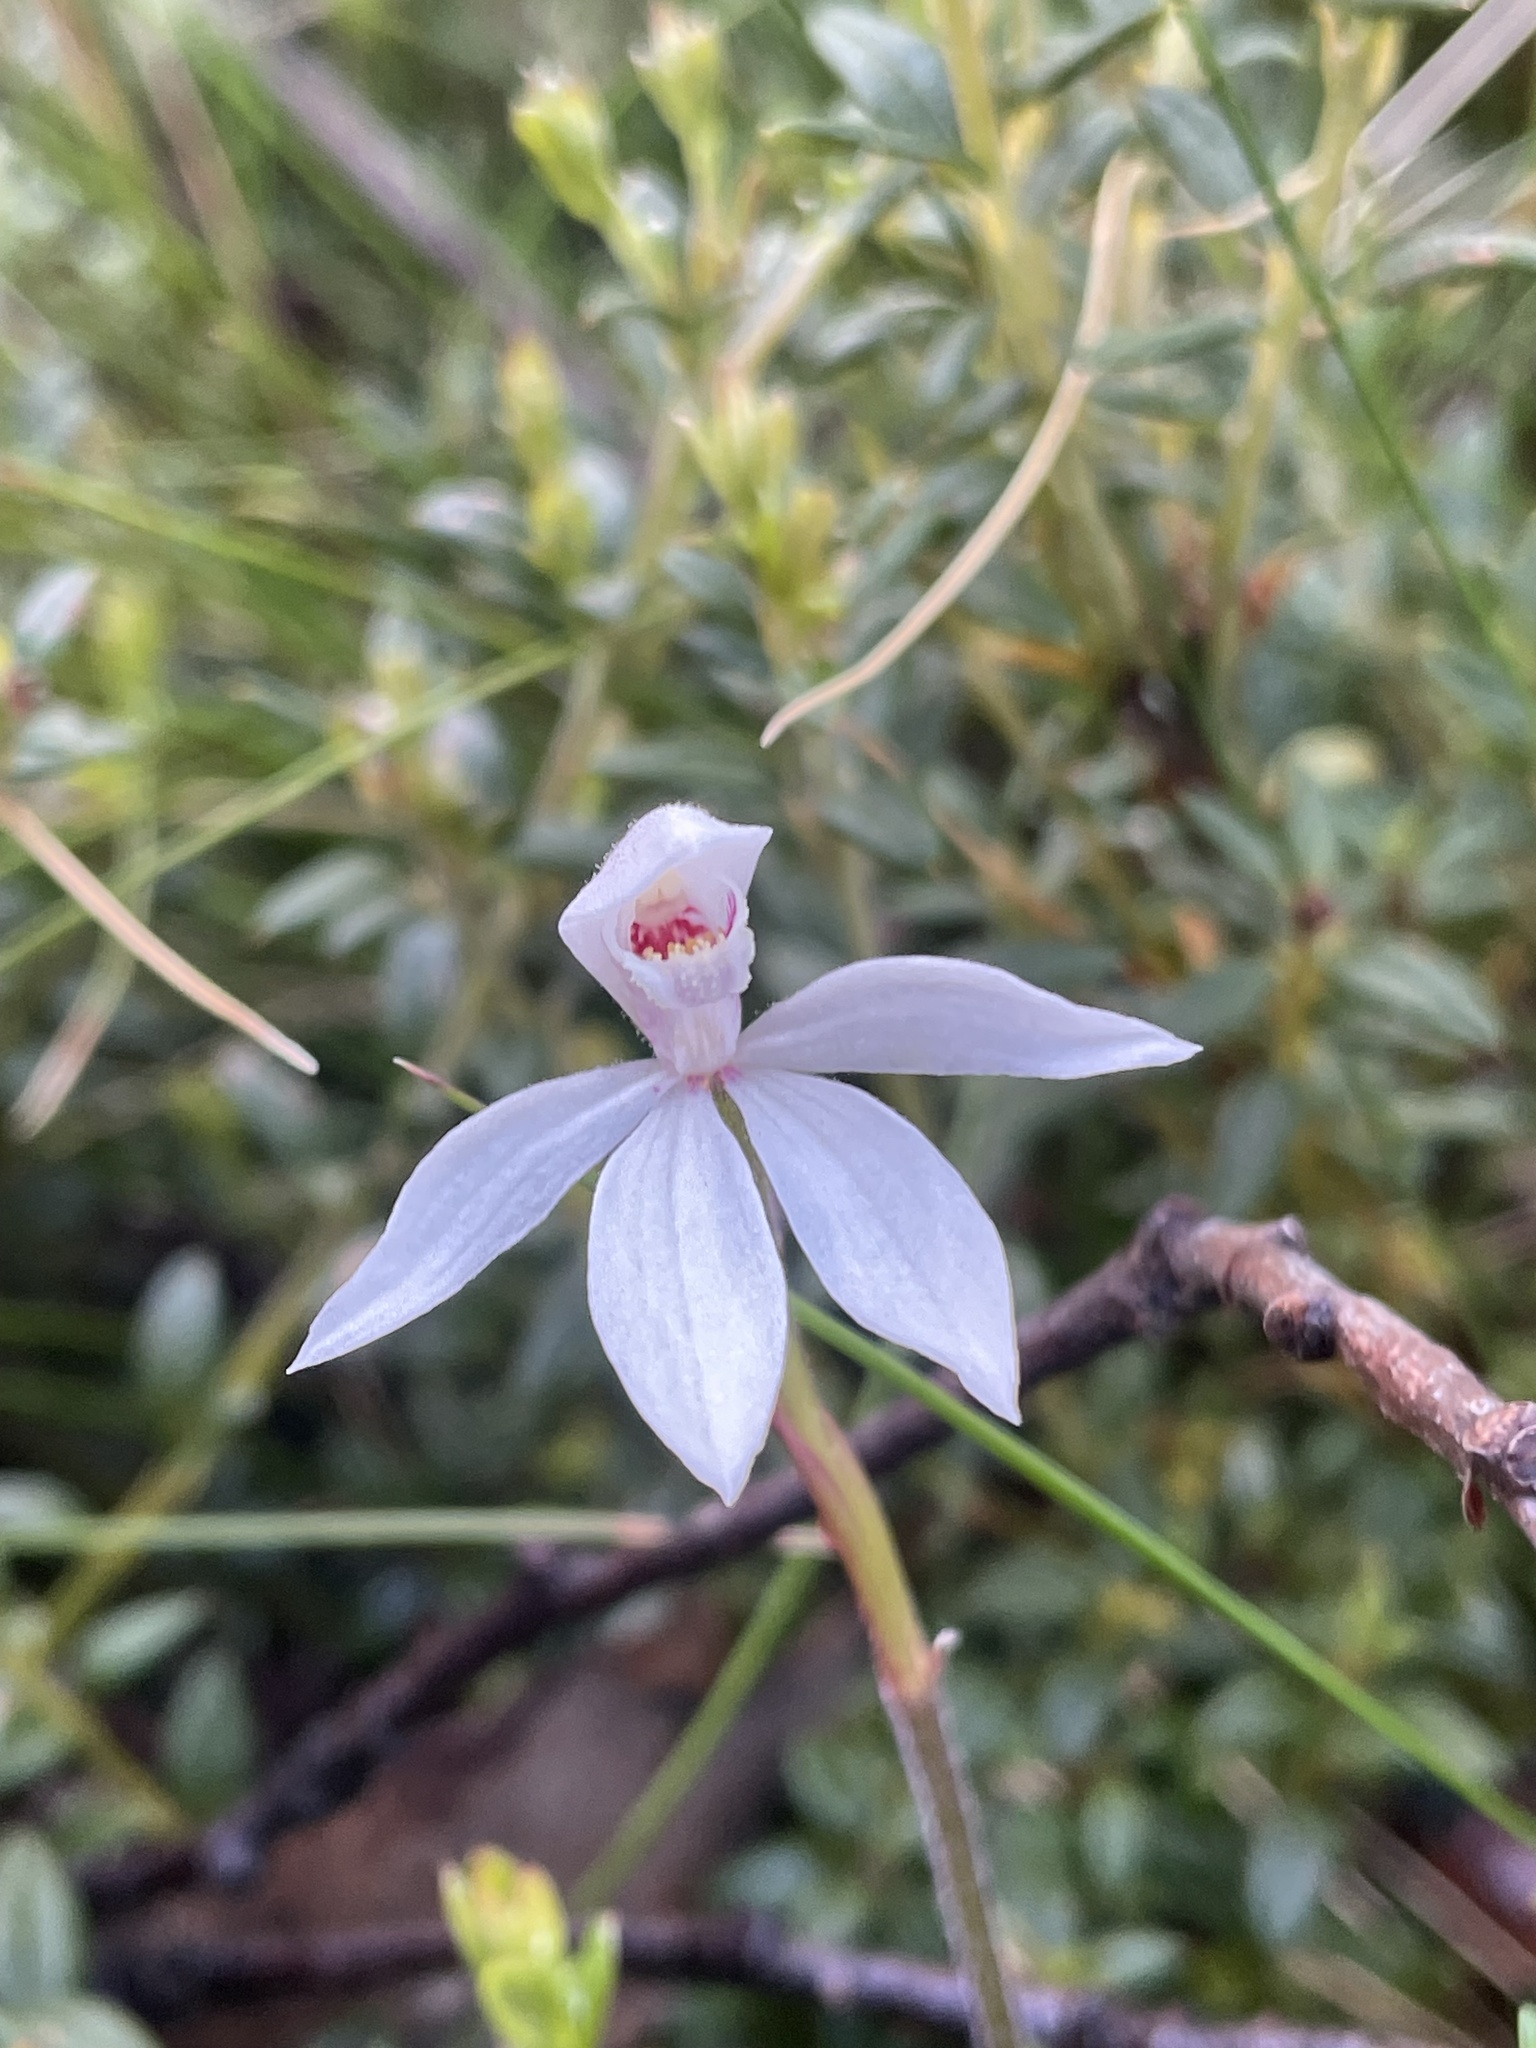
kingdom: Plantae
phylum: Tracheophyta
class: Liliopsida
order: Asparagales
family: Orchidaceae
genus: Caladenia
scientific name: Caladenia alpina
